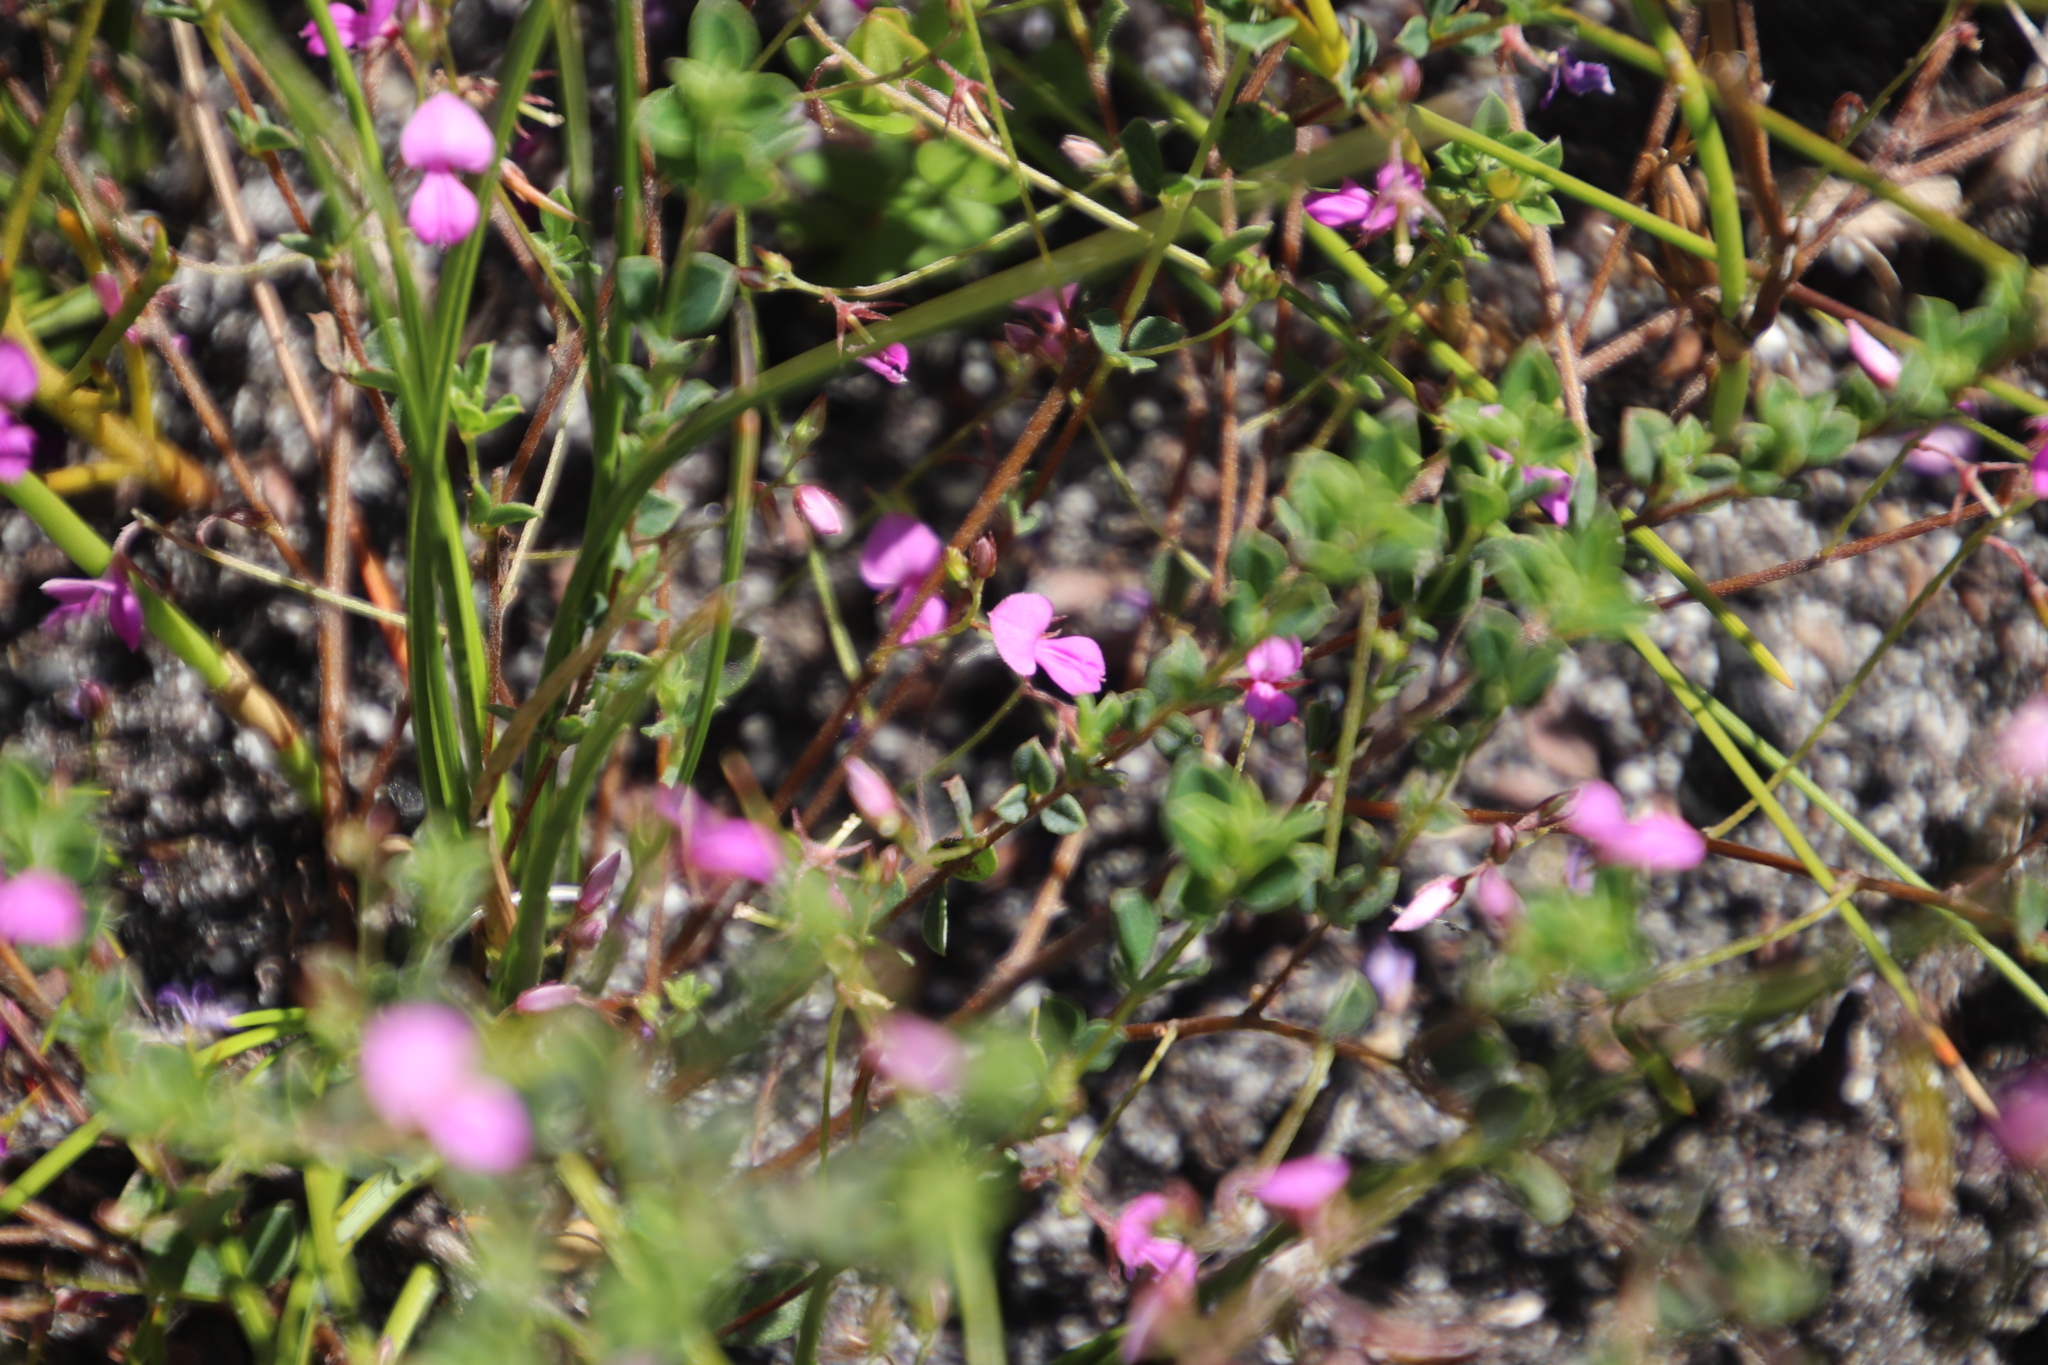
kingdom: Plantae
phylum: Tracheophyta
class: Magnoliopsida
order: Fabales
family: Fabaceae
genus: Indigofera
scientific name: Indigofera sarmentosa
